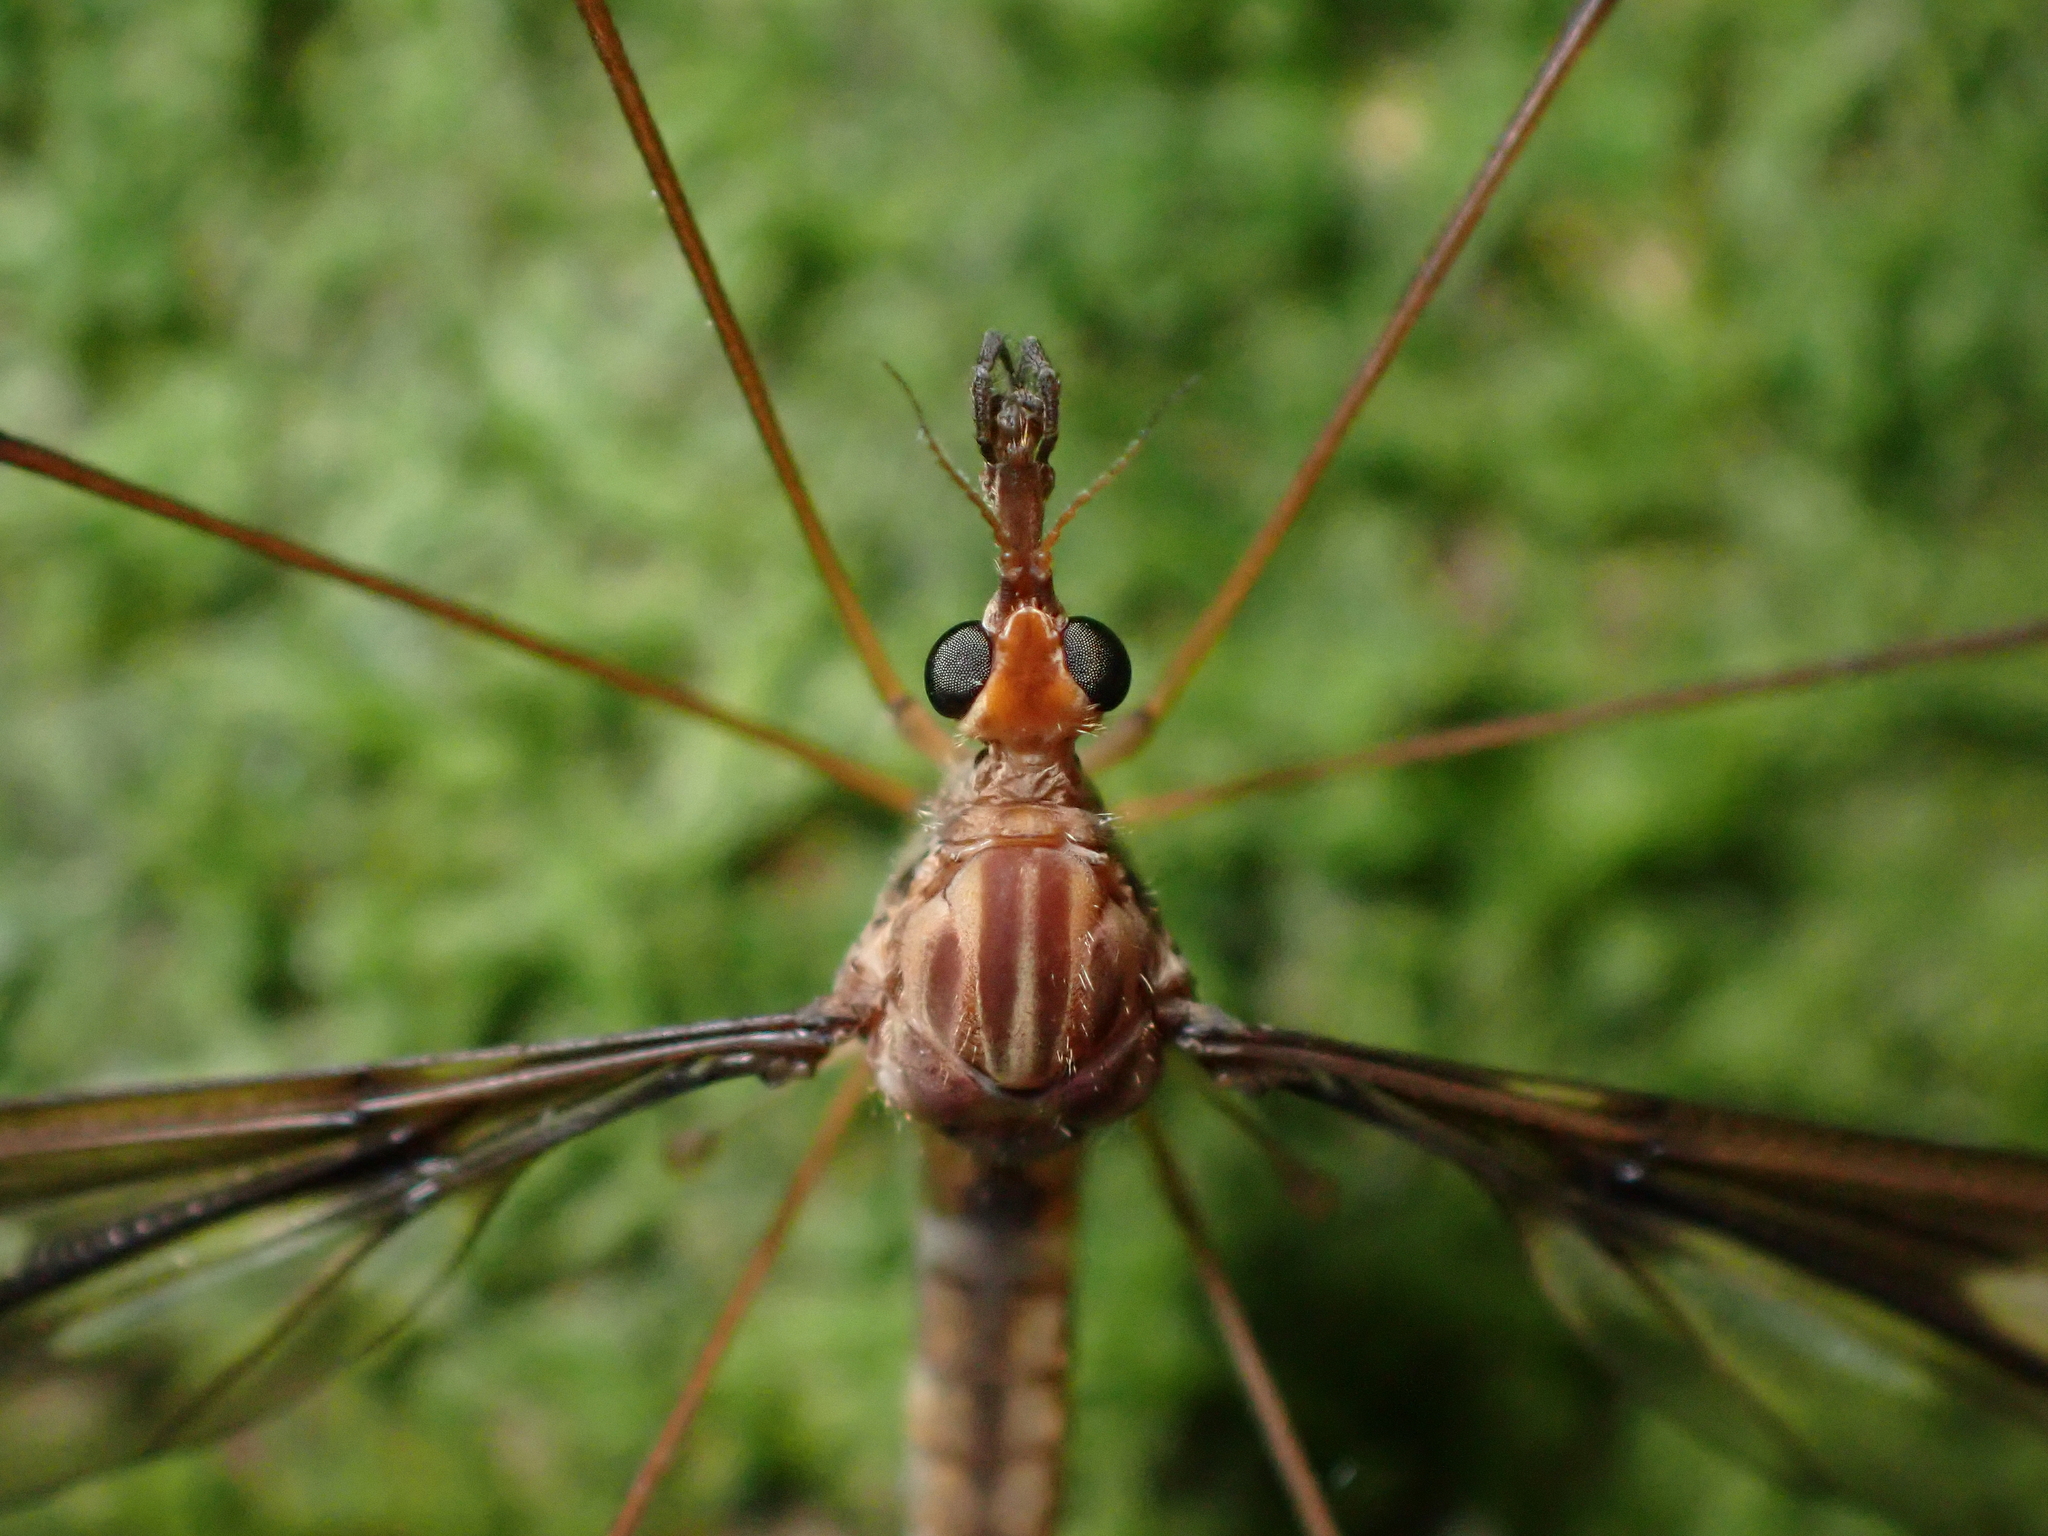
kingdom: Animalia
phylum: Arthropoda
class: Insecta
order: Diptera
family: Tipulidae
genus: Leptotarsus
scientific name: Leptotarsus huttoni
